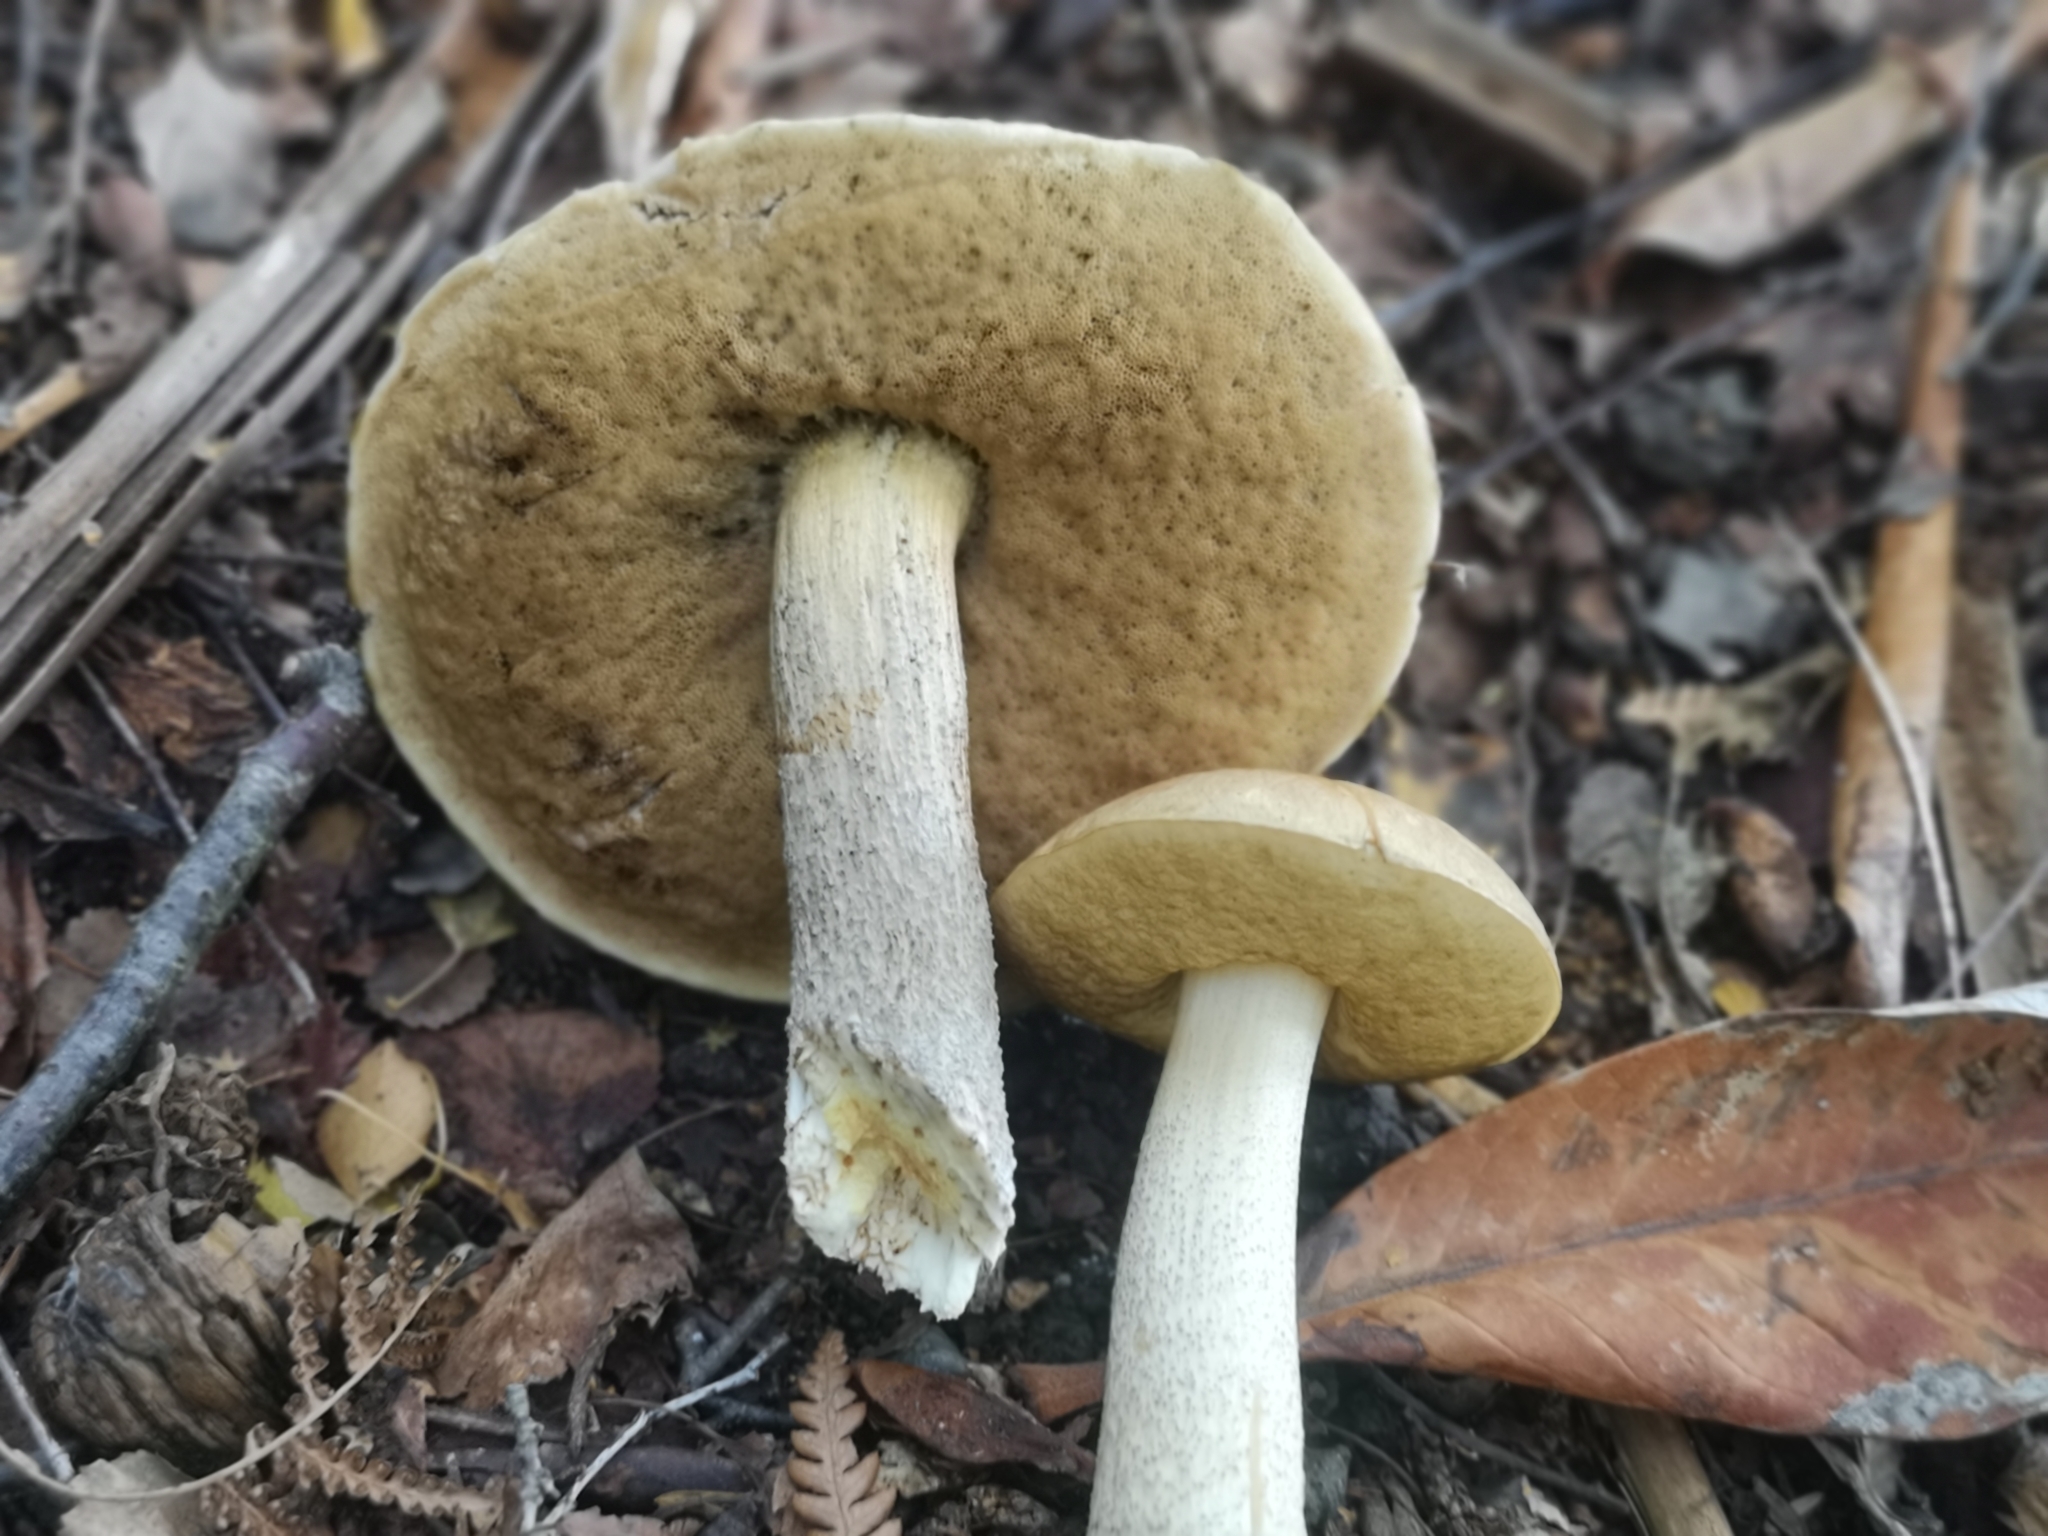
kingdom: Fungi
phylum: Basidiomycota
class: Agaricomycetes
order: Boletales
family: Boletaceae
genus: Leccinum
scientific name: Leccinum scabrum
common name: Blushing bolete
